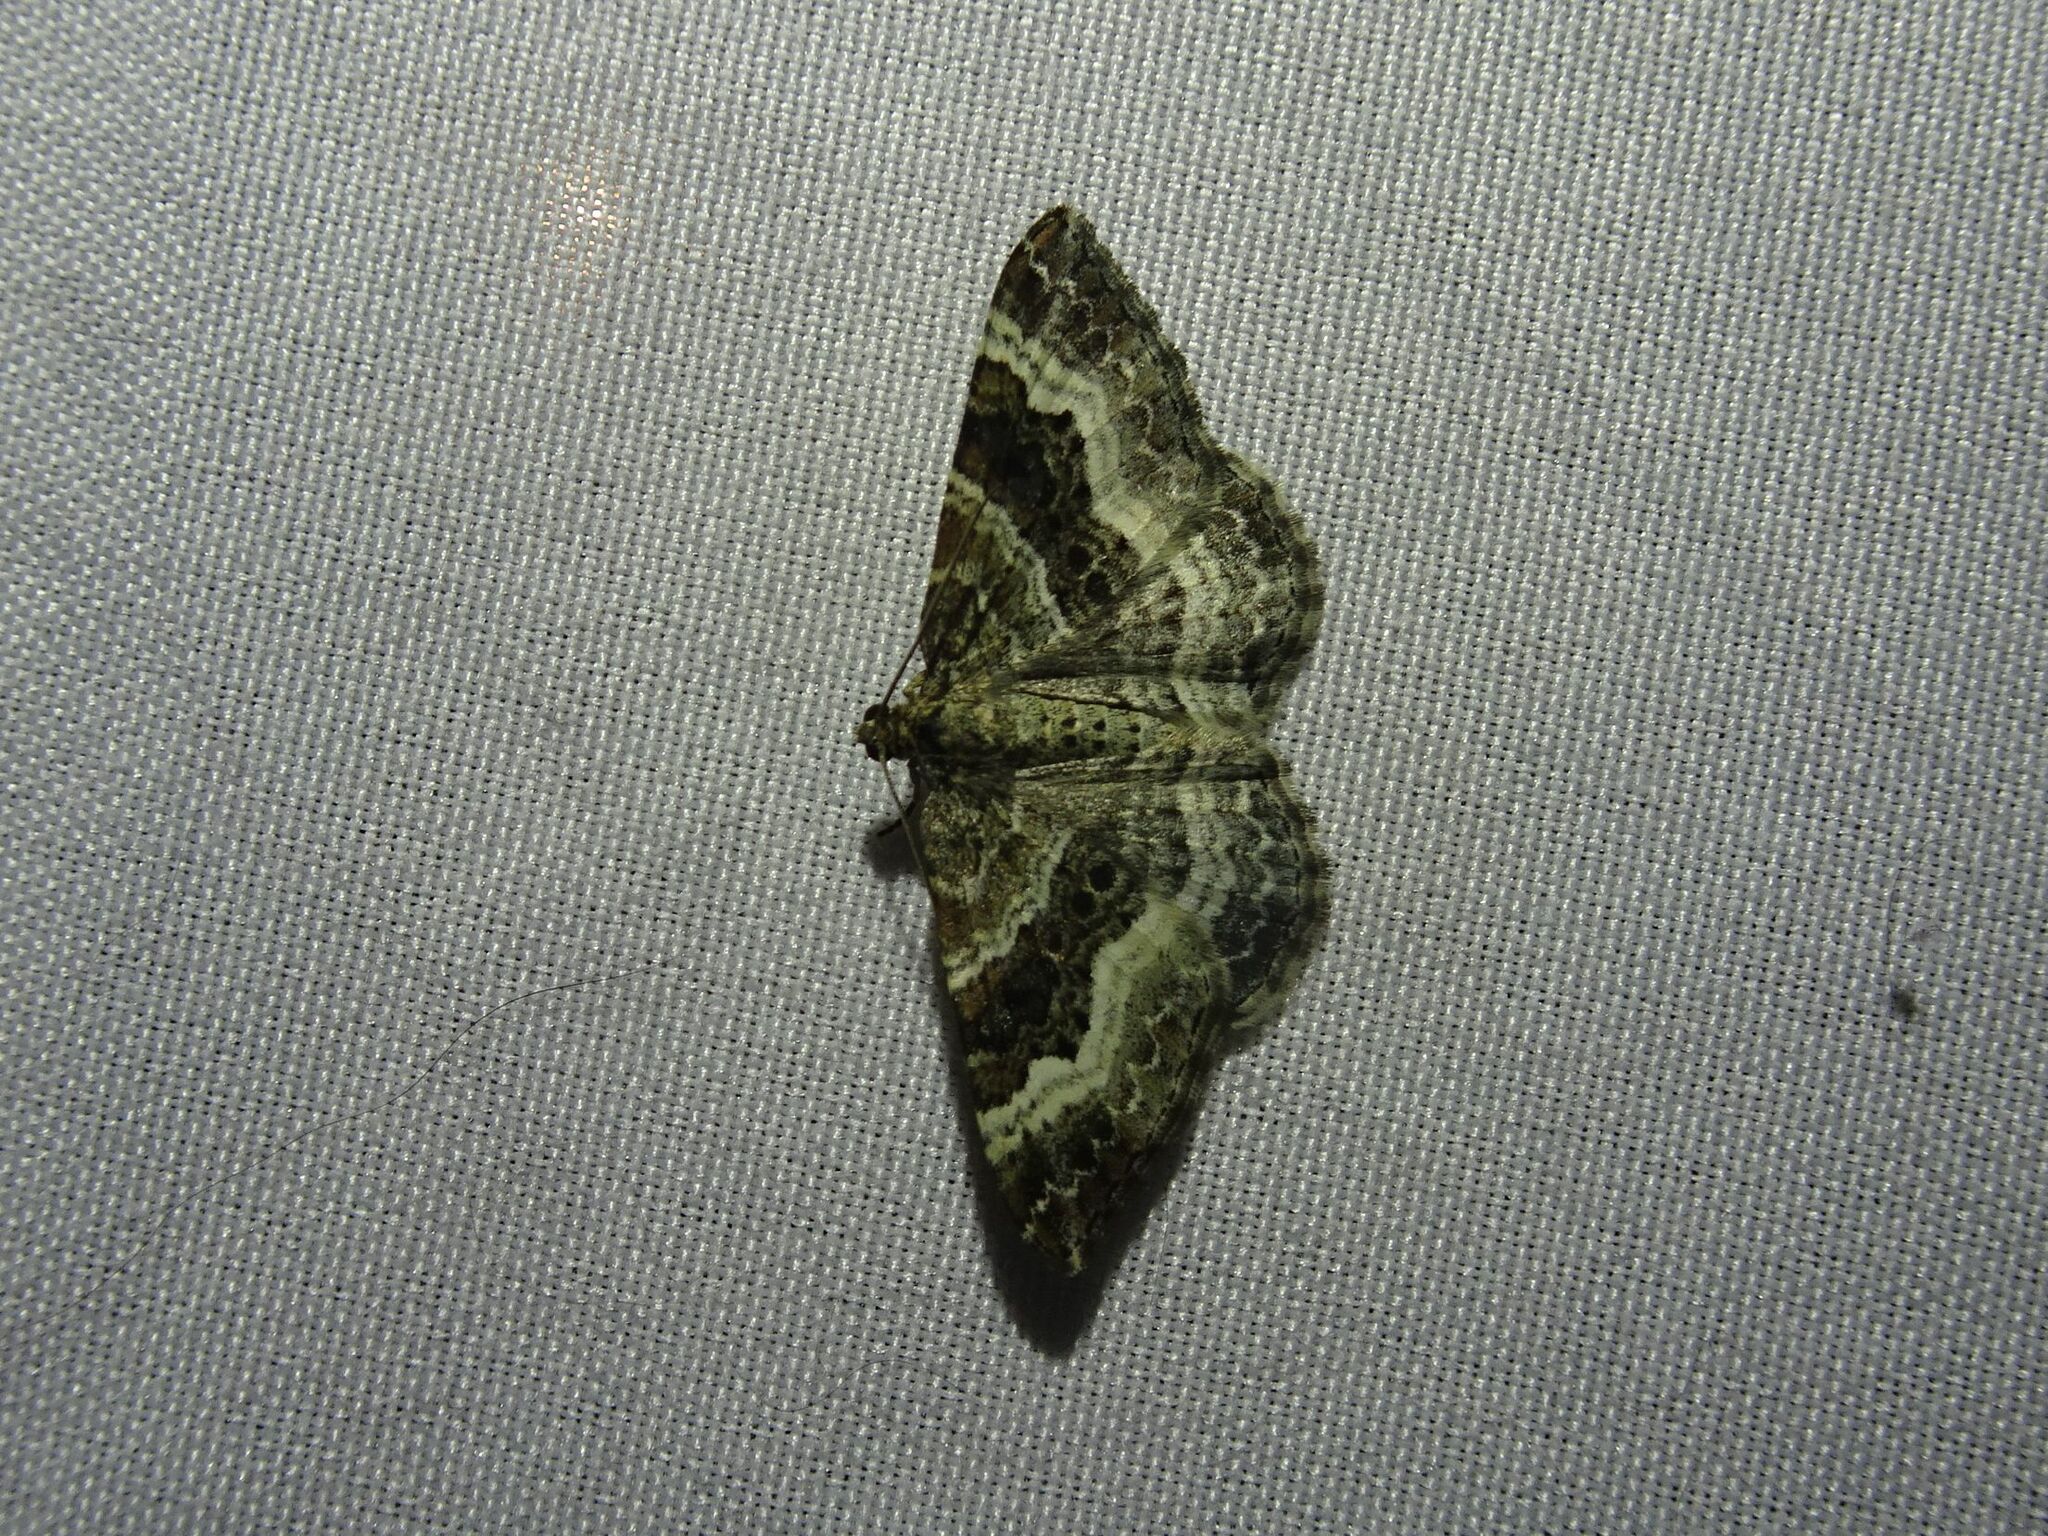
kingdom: Animalia
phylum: Arthropoda
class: Insecta
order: Lepidoptera
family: Geometridae
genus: Epirrhoe
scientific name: Epirrhoe alternata
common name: Common carpet
